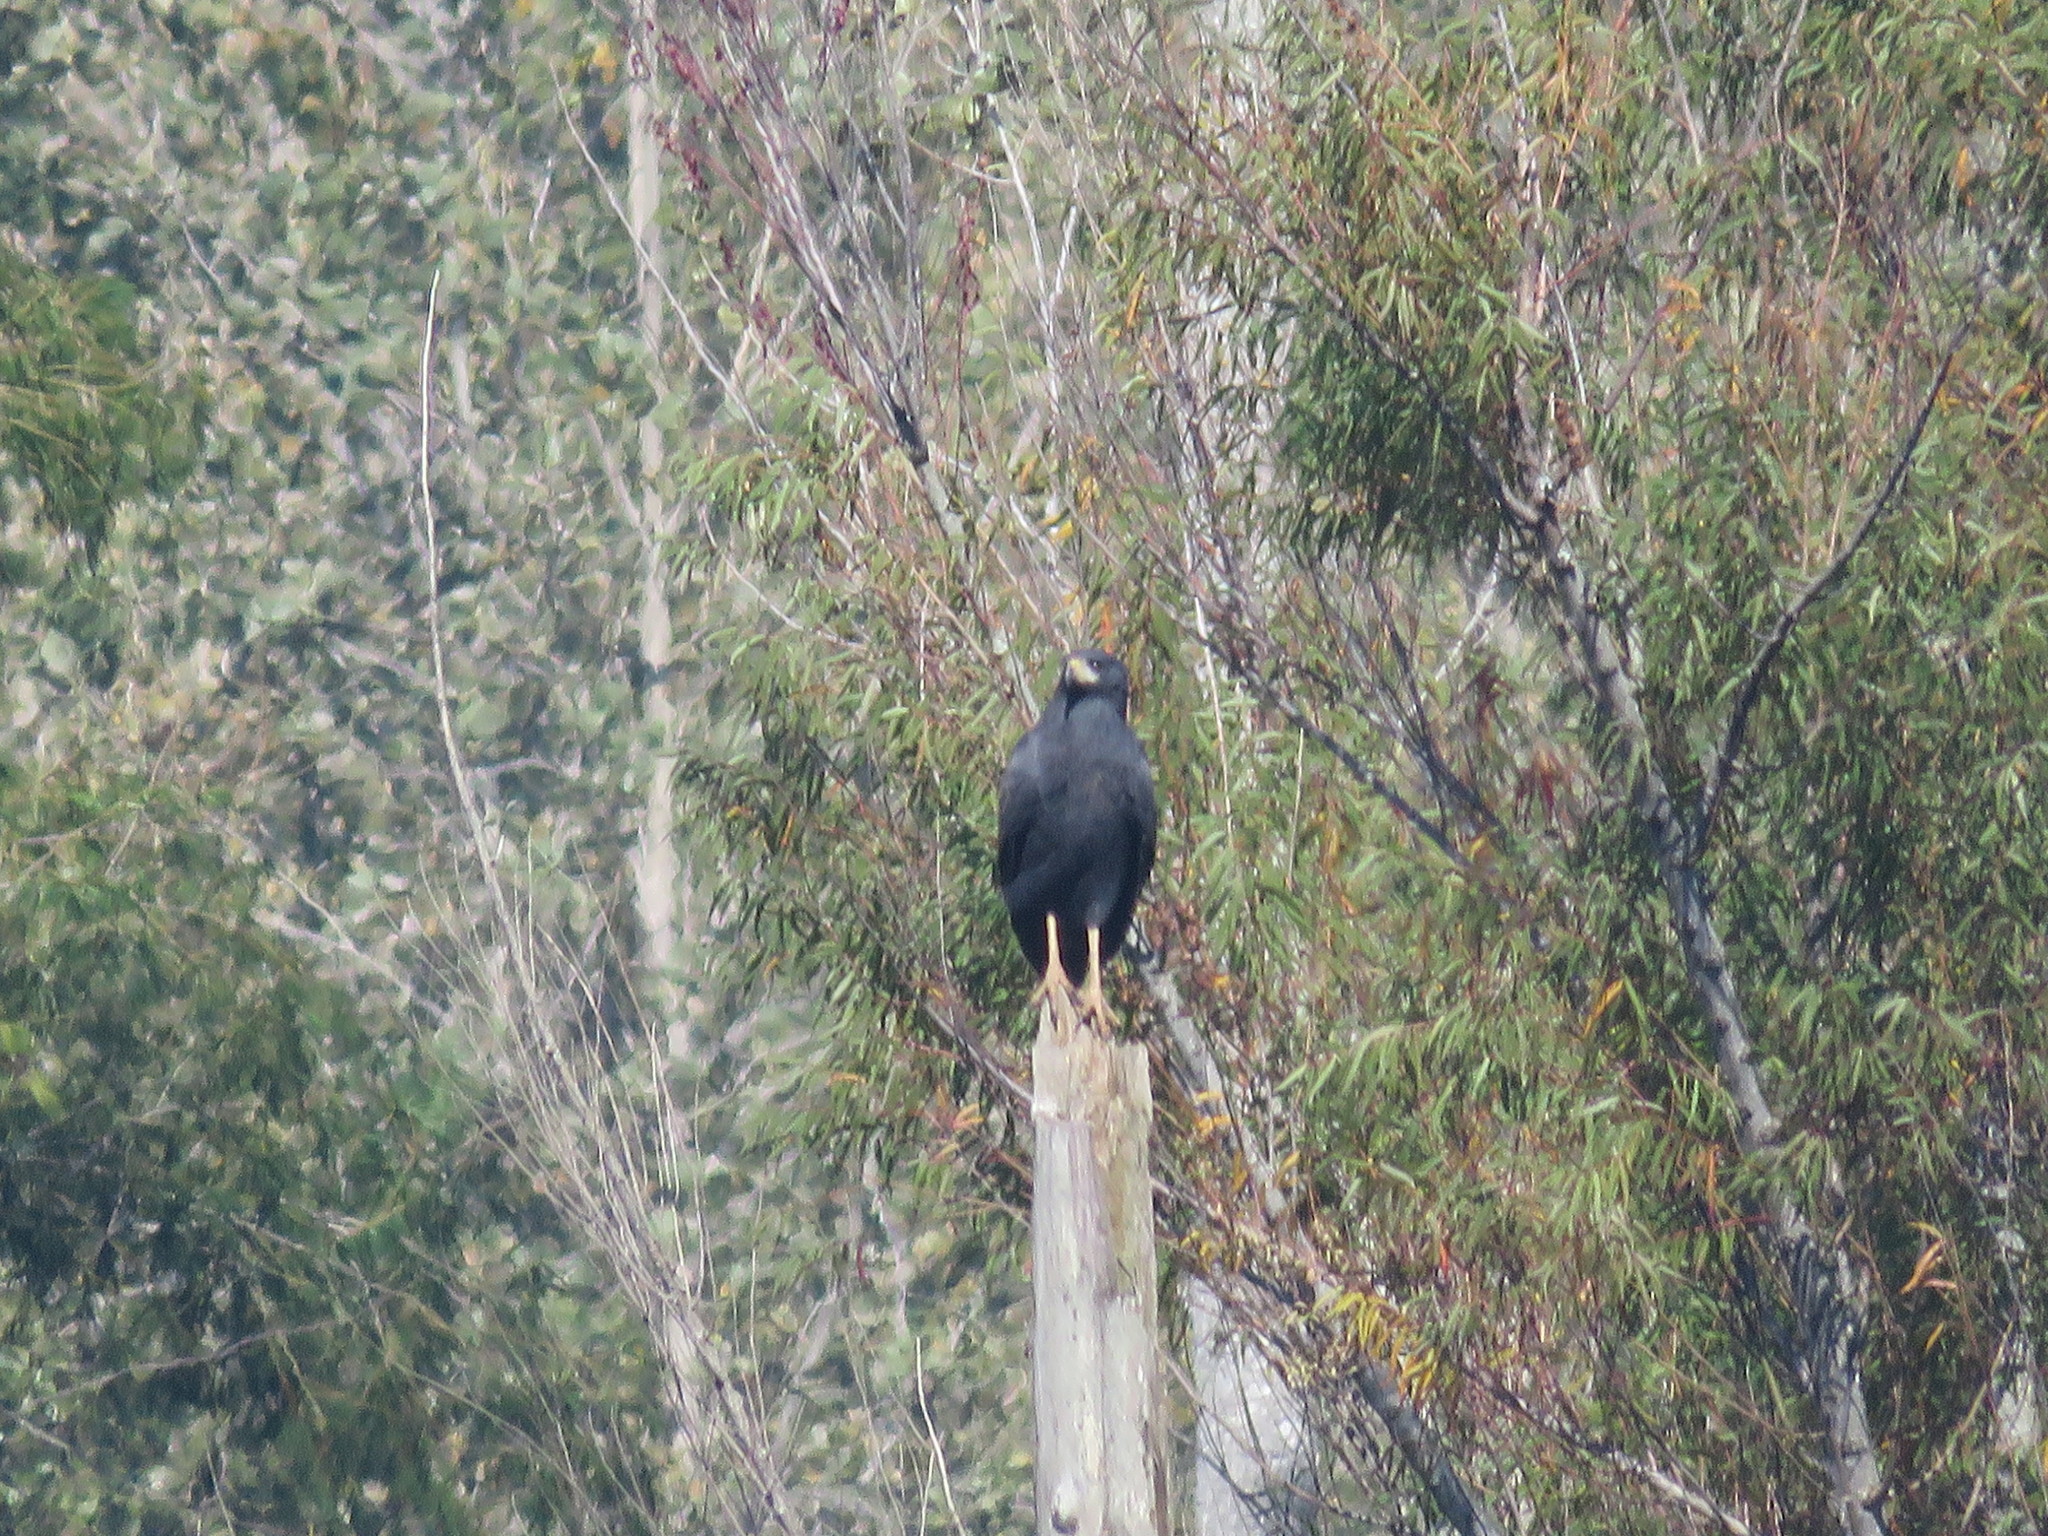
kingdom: Animalia
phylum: Chordata
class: Aves
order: Accipitriformes
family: Accipitridae
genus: Buteogallus
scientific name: Buteogallus urubitinga
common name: Great black hawk
